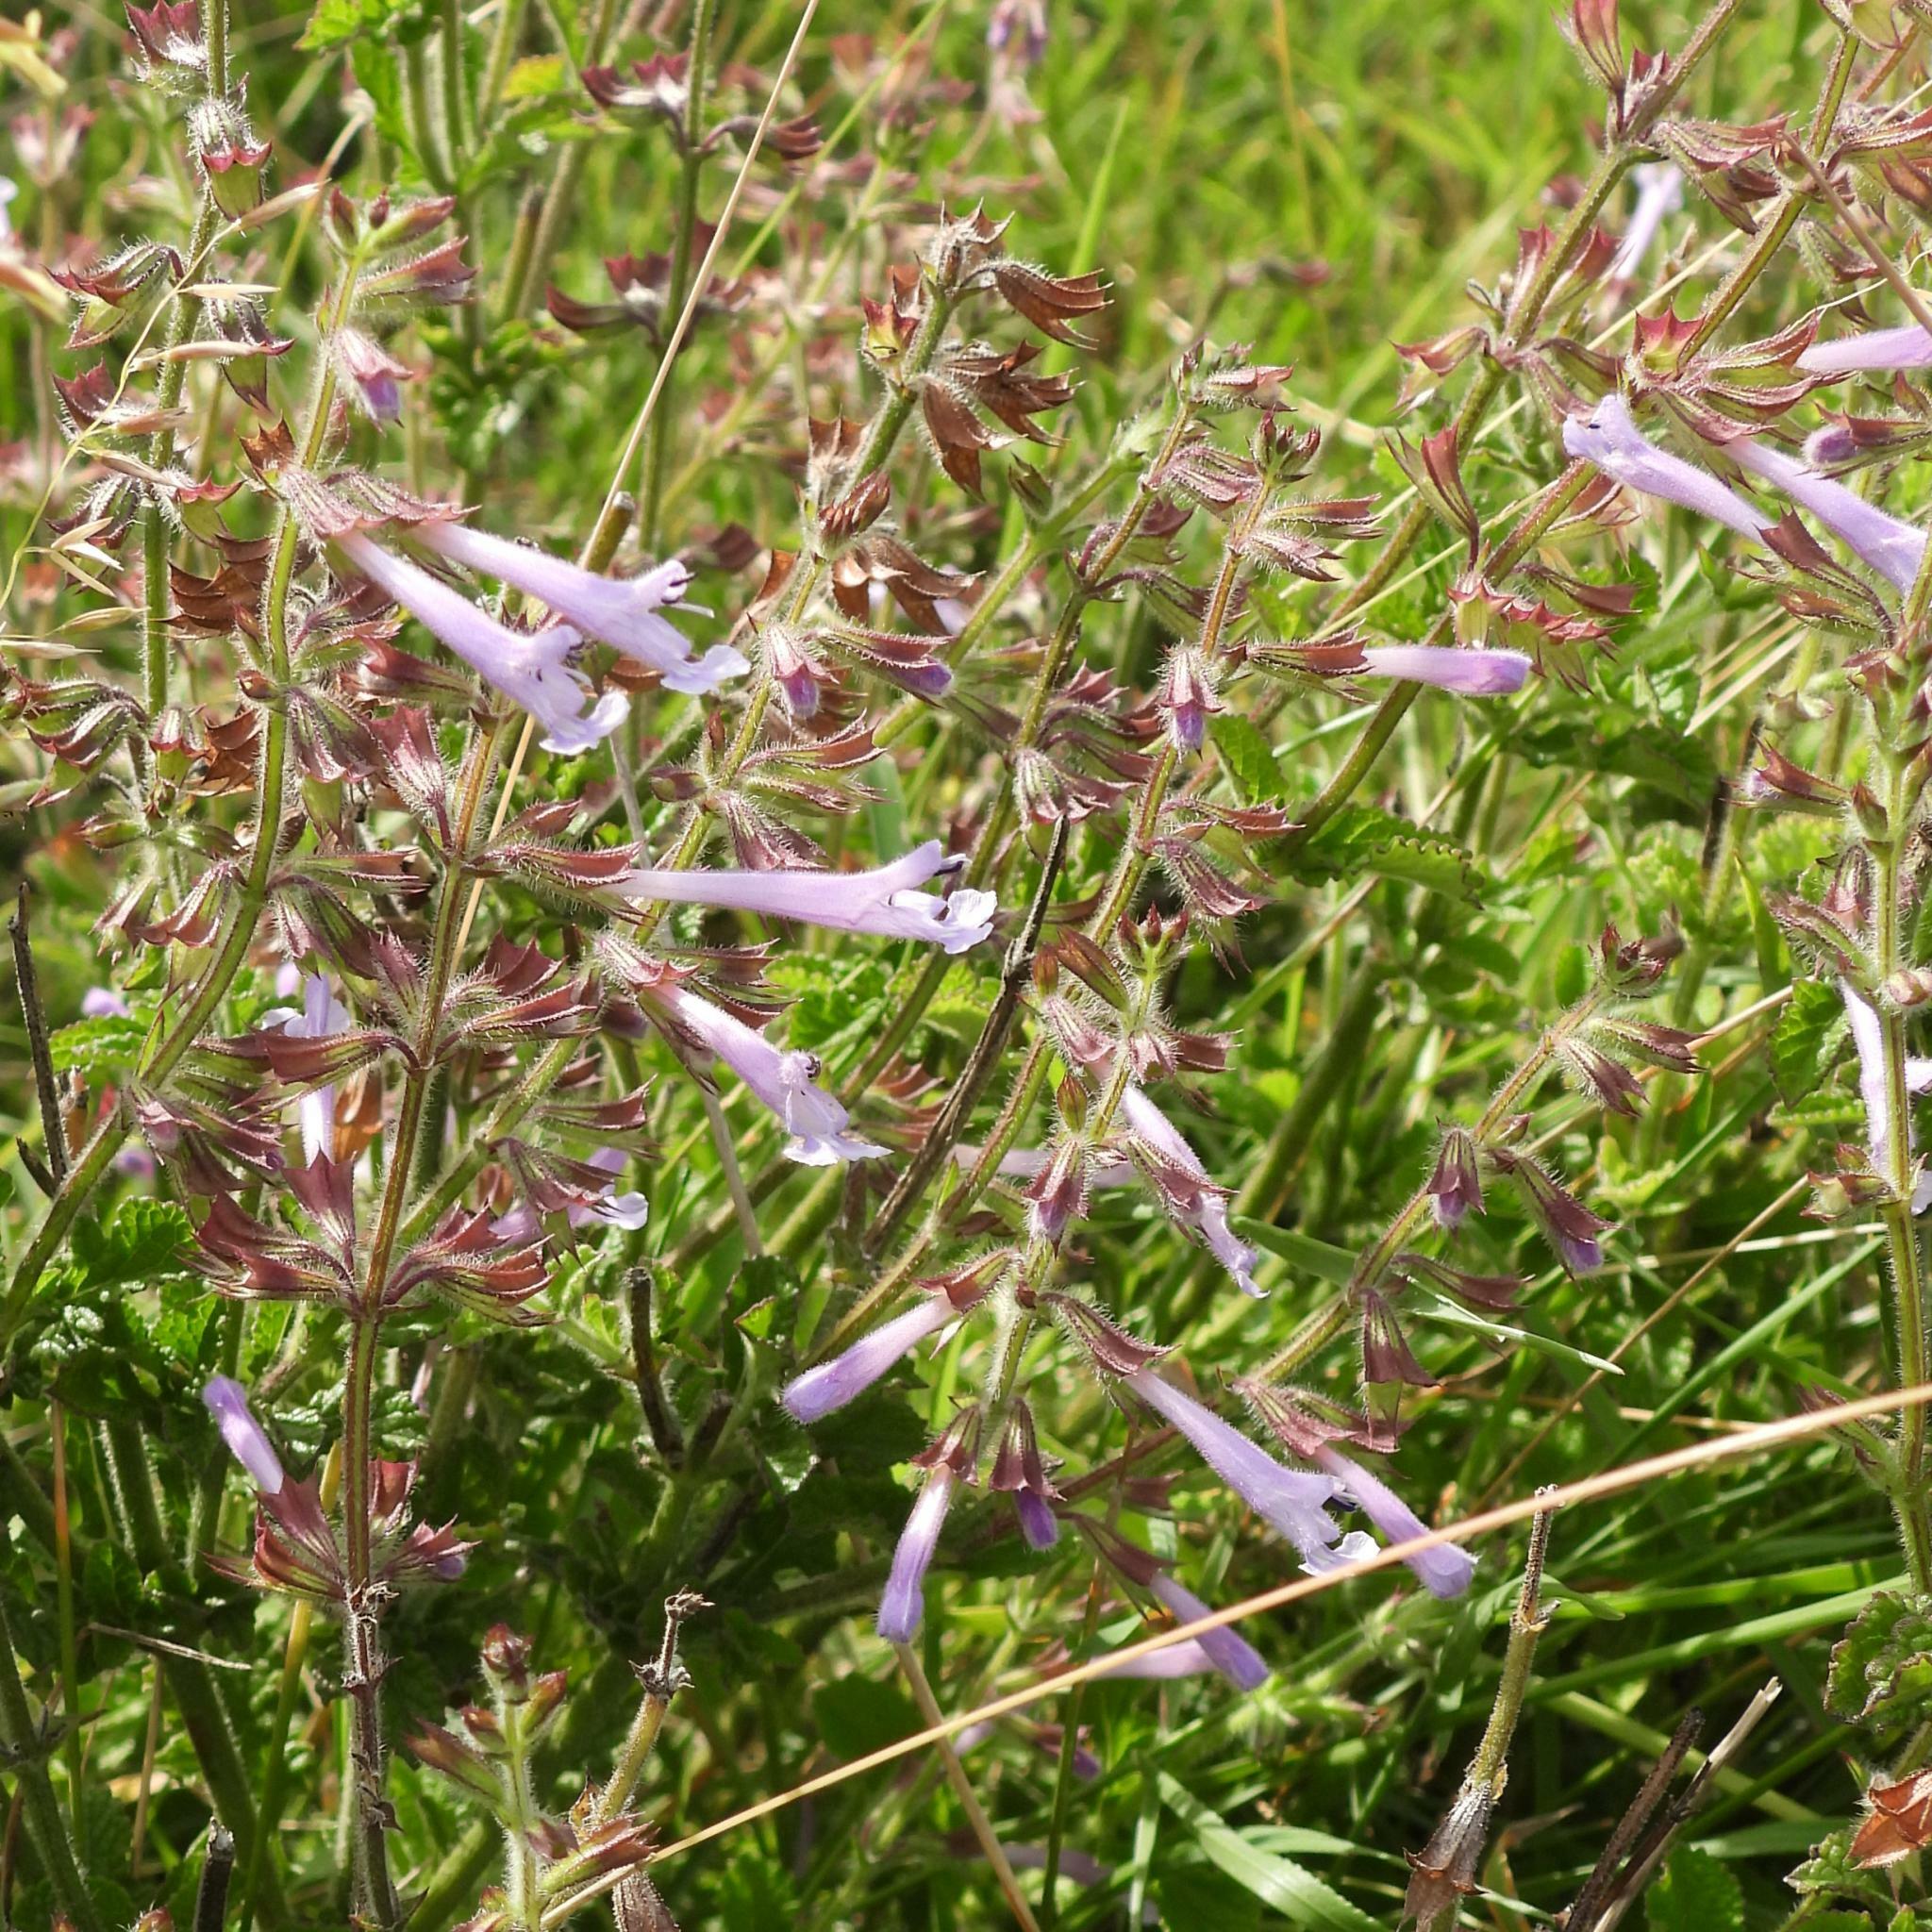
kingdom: Plantae
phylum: Tracheophyta
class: Magnoliopsida
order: Lamiales
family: Lamiaceae
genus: Salvia
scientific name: Salvia scabra
